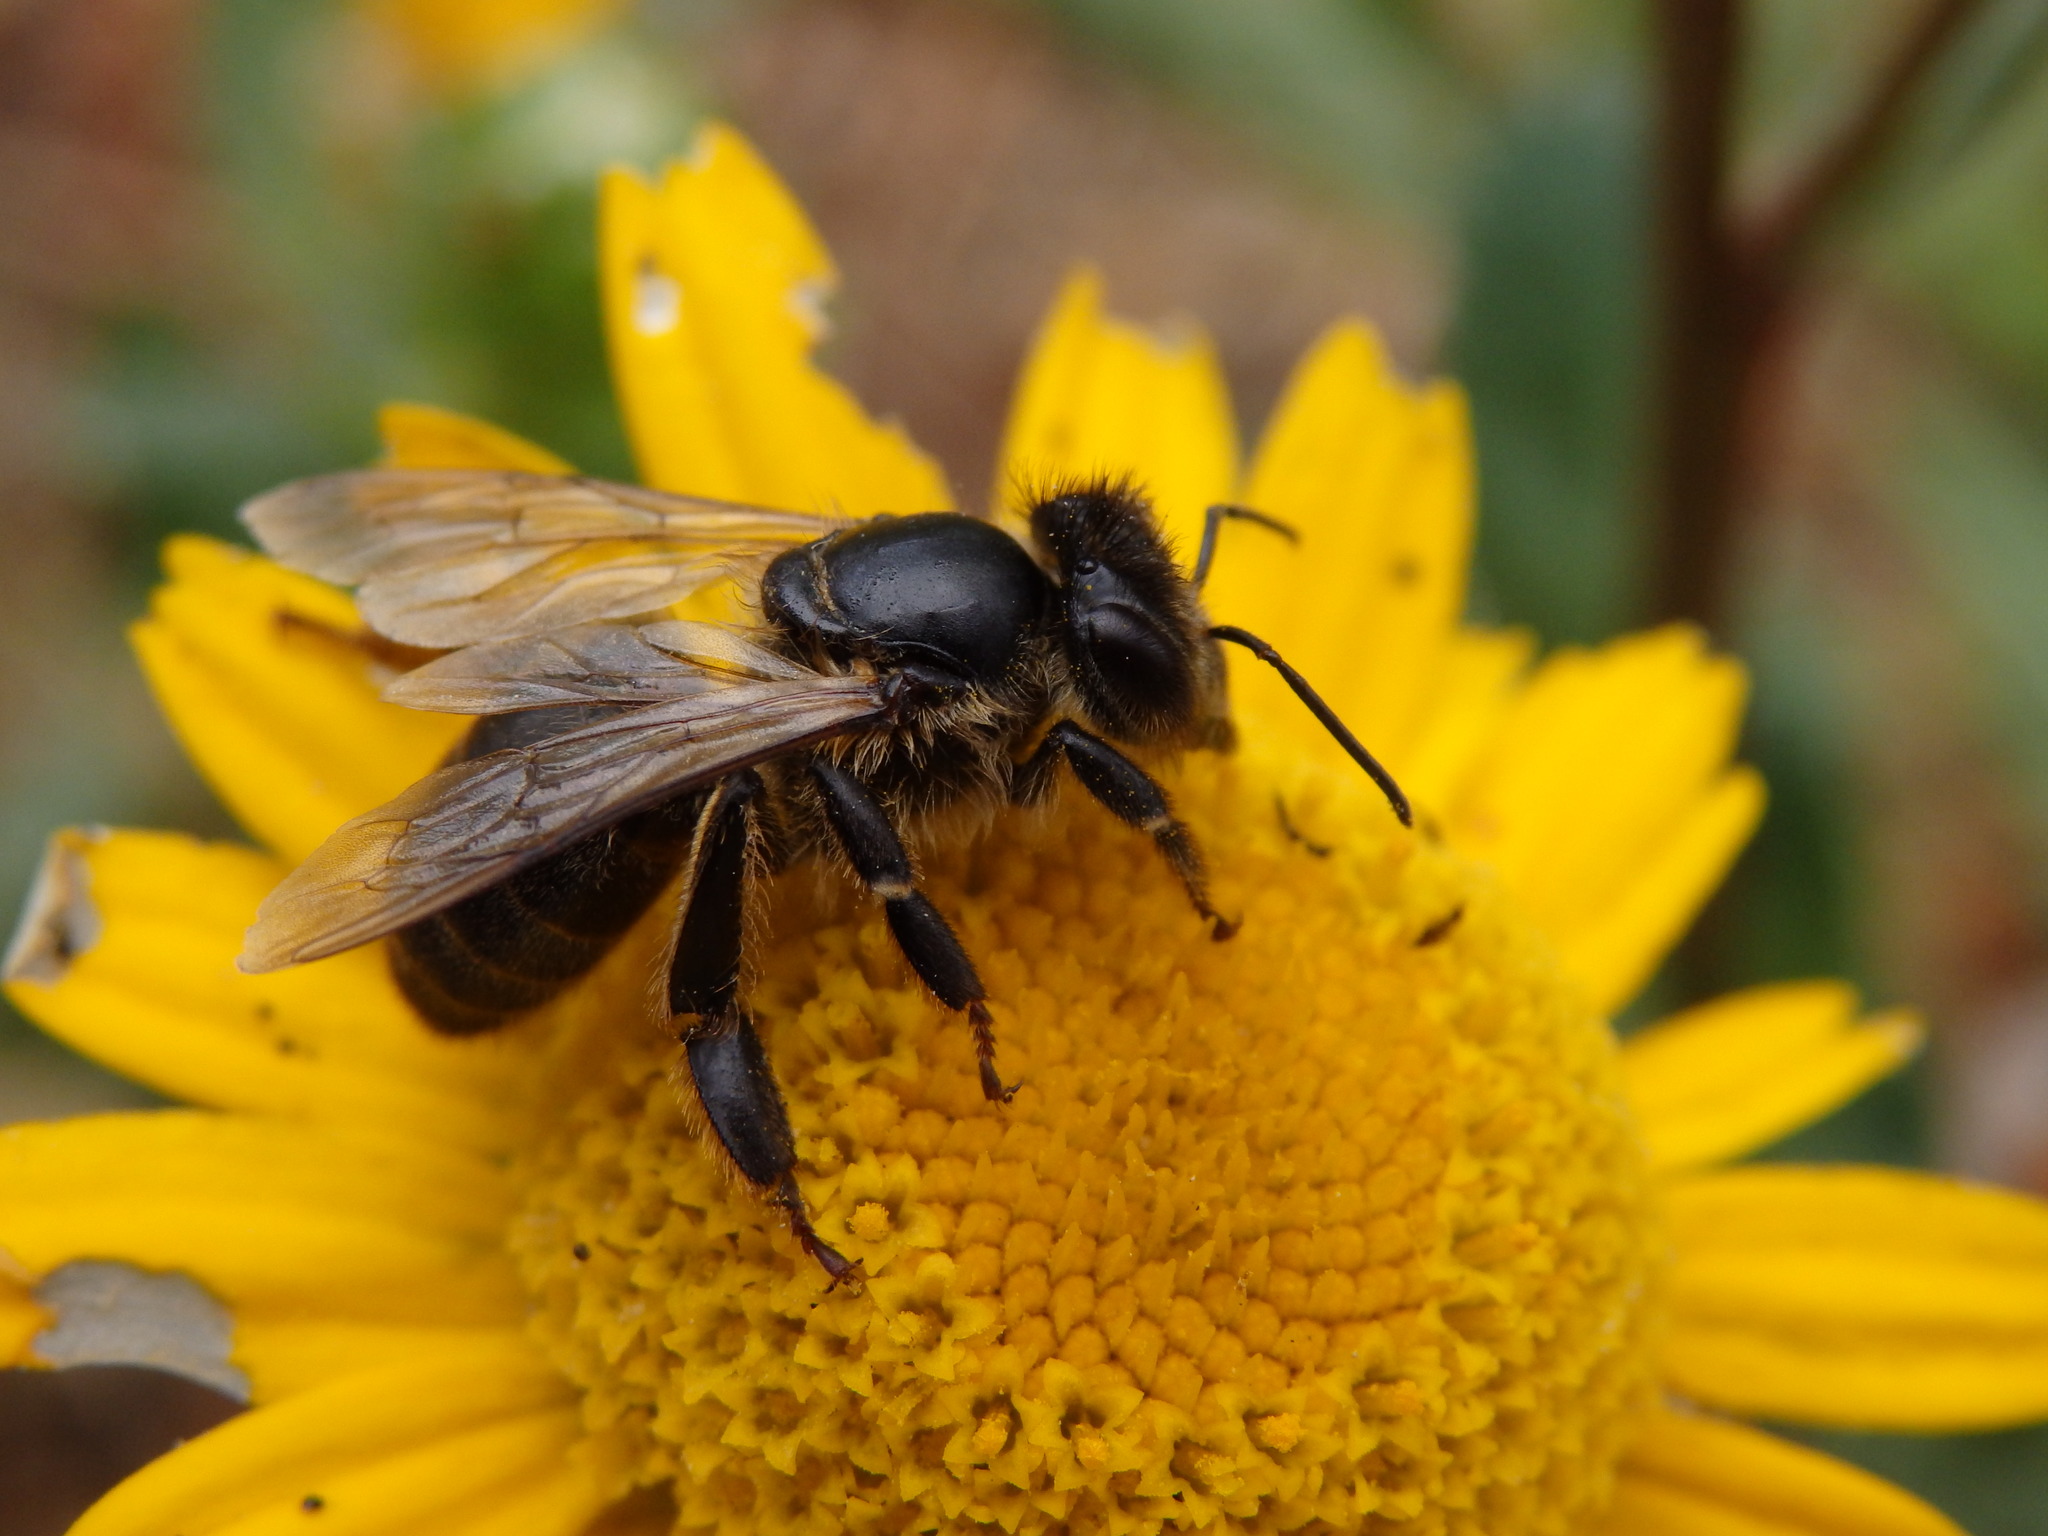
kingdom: Animalia
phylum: Arthropoda
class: Insecta
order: Hymenoptera
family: Apidae
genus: Apis
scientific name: Apis mellifera
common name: Honey bee
